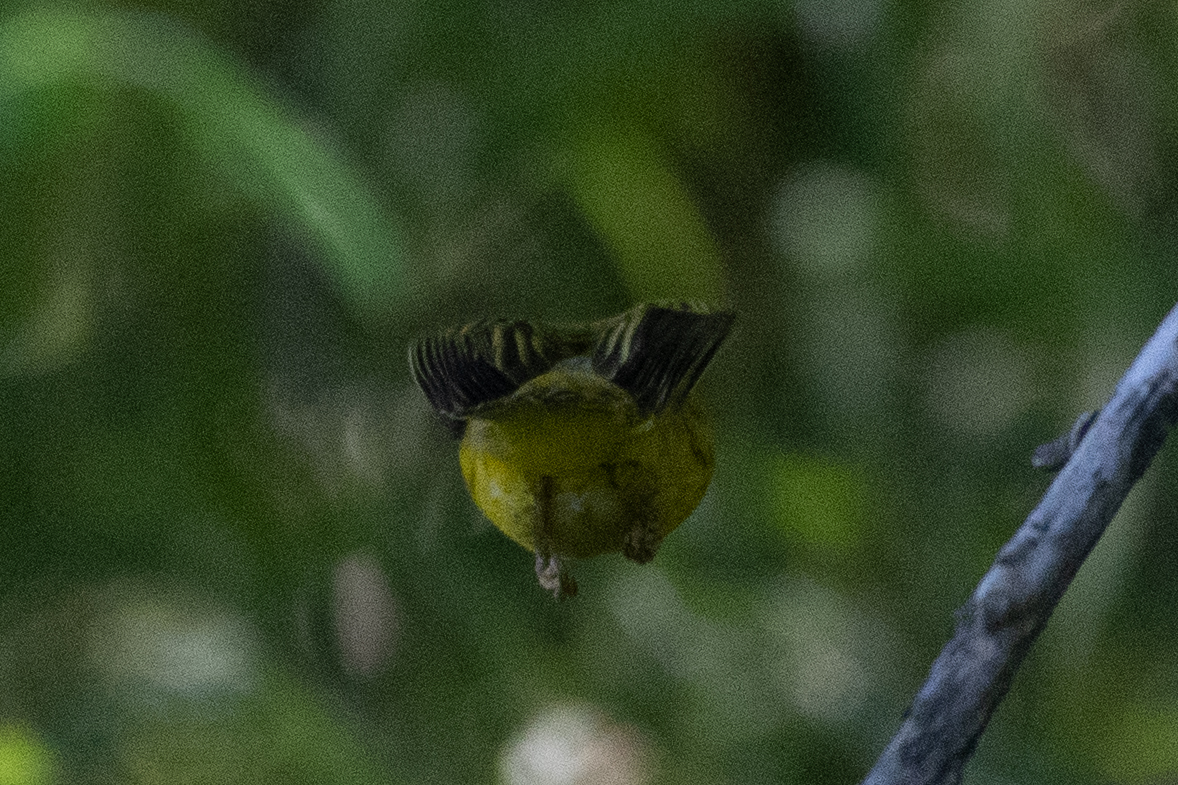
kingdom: Animalia
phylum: Chordata
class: Aves
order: Passeriformes
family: Parulidae
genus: Setophaga
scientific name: Setophaga petechia
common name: Yellow warbler
